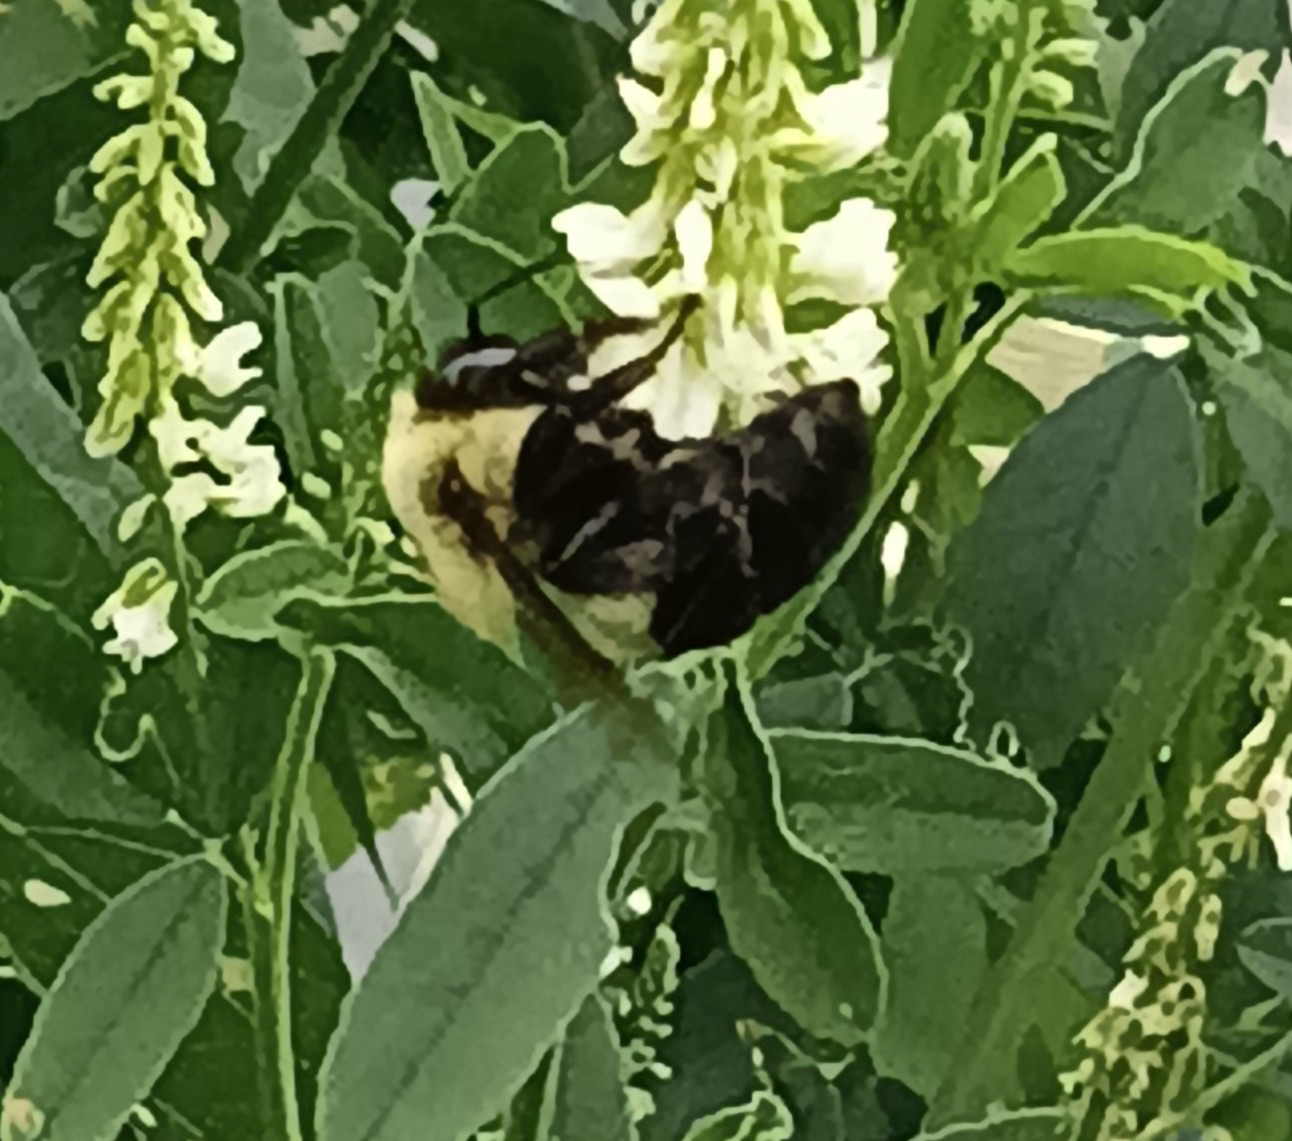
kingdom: Animalia
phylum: Arthropoda
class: Insecta
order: Hymenoptera
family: Apidae
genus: Bombus
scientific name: Bombus impatiens
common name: Common eastern bumble bee
